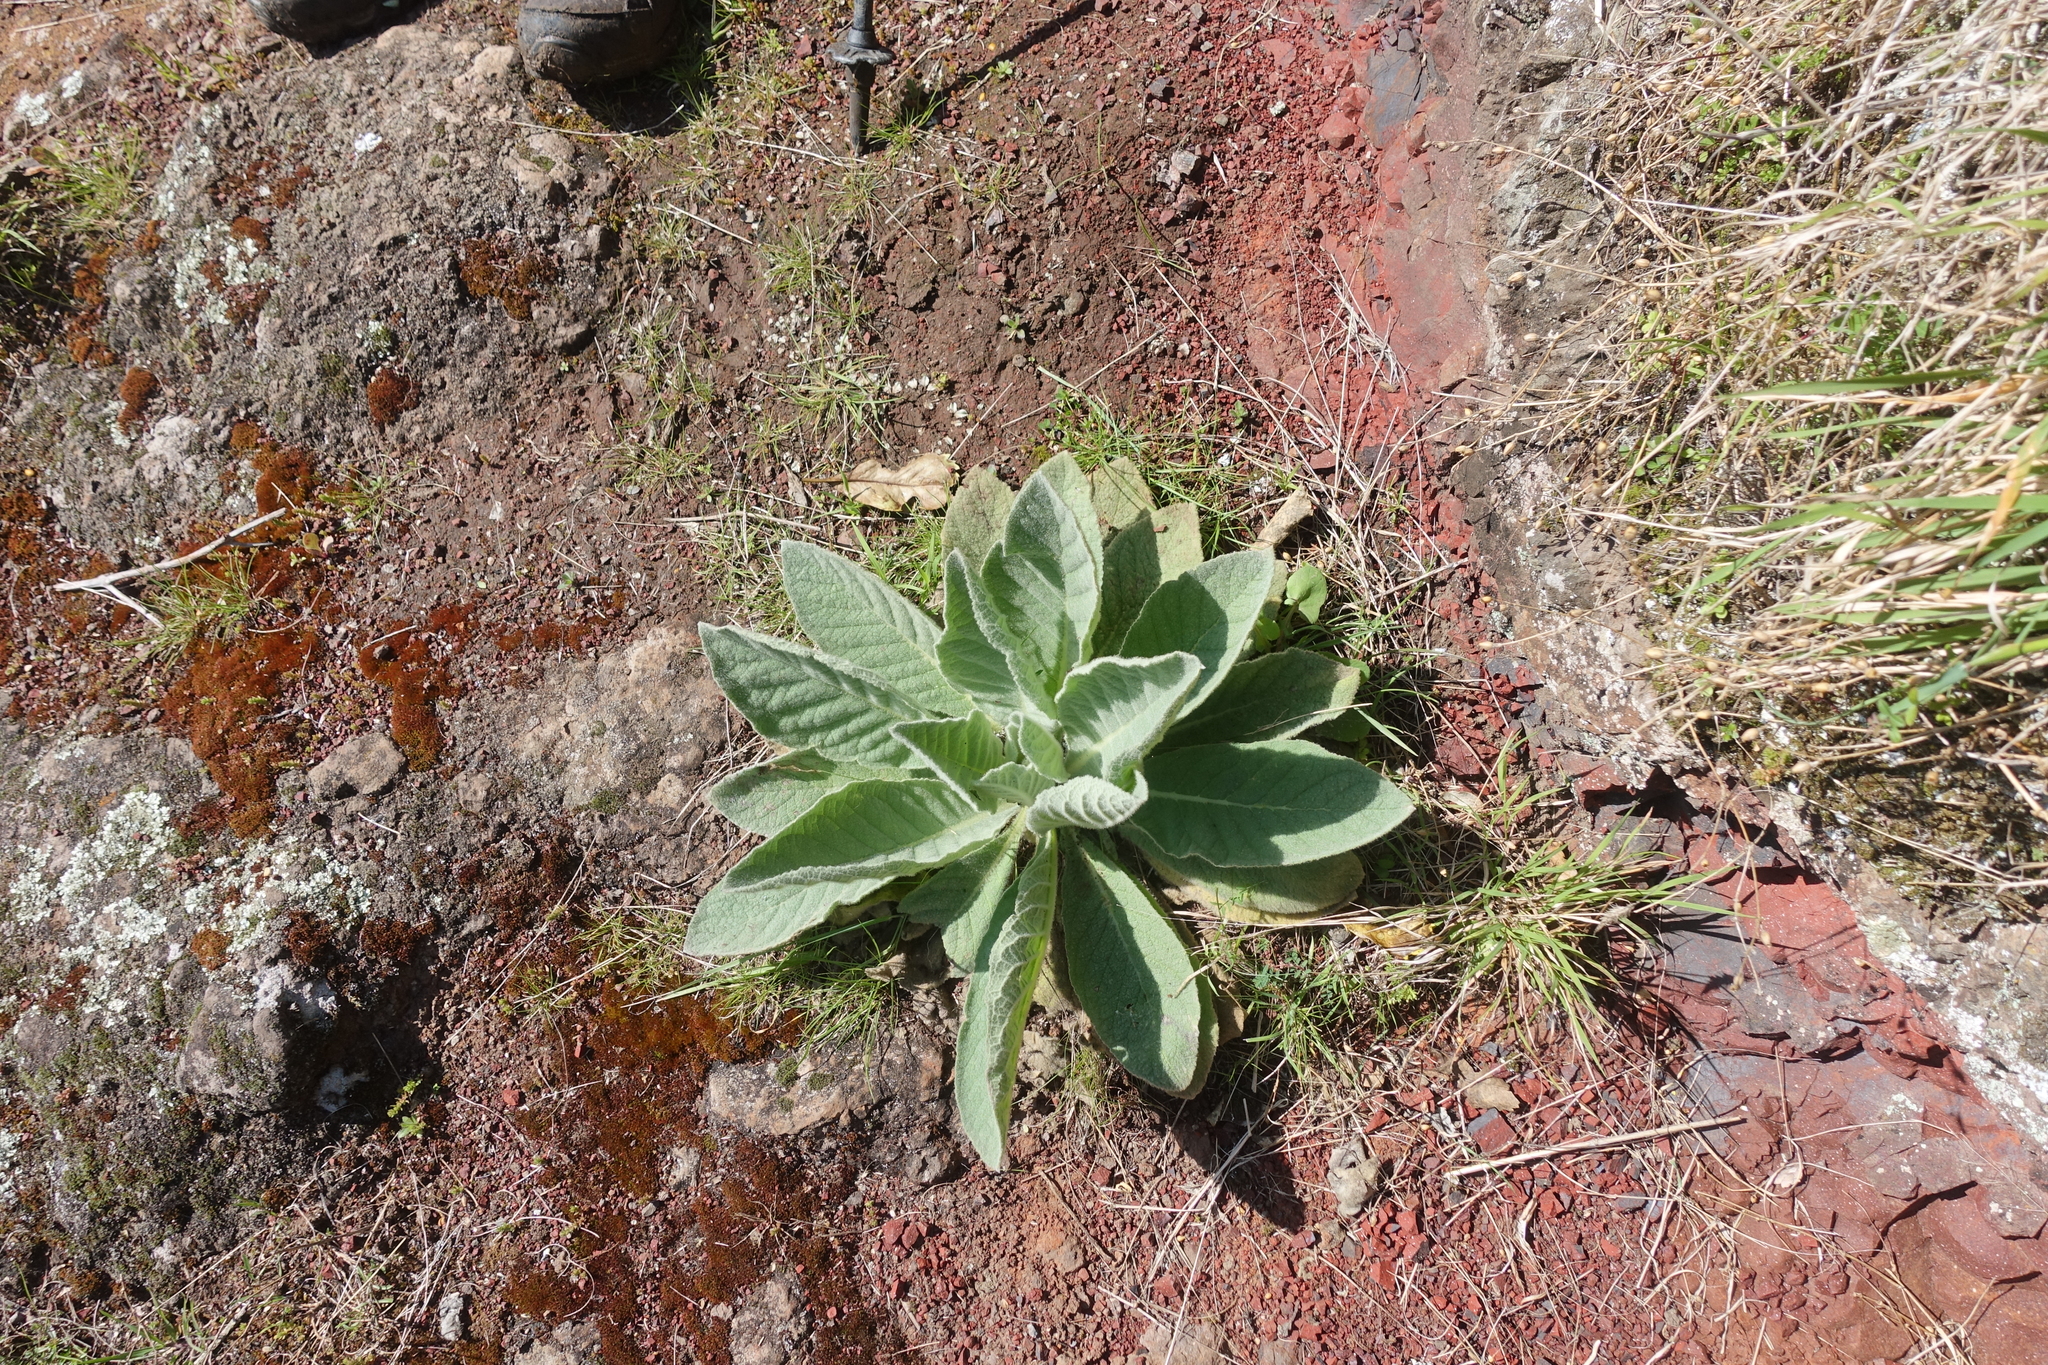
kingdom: Plantae
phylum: Tracheophyta
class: Magnoliopsida
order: Lamiales
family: Scrophulariaceae
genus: Verbascum
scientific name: Verbascum thapsus
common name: Common mullein
